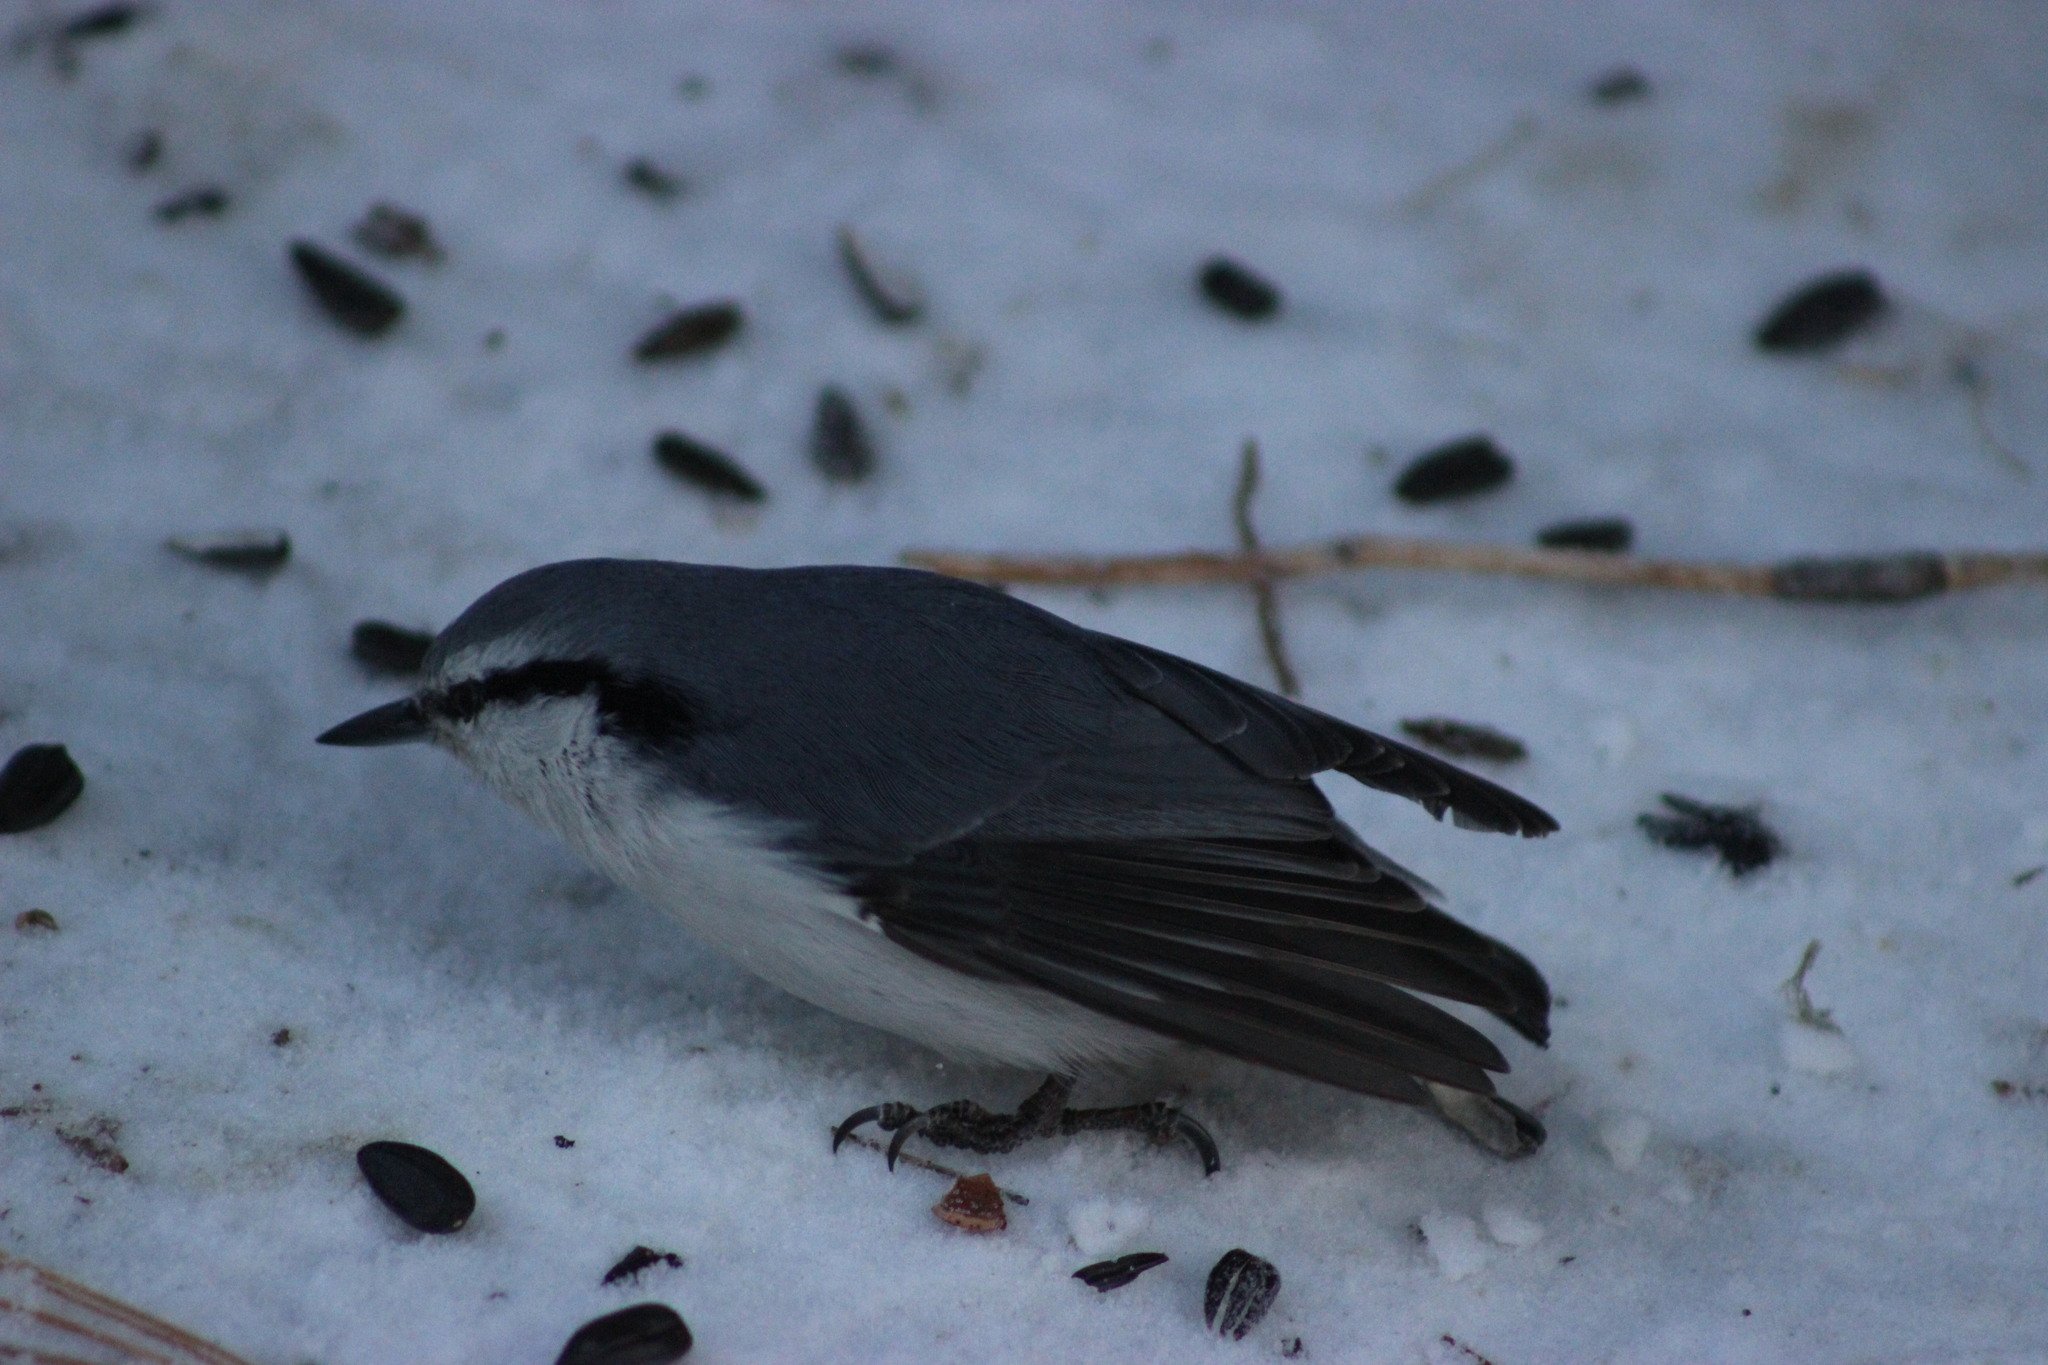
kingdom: Animalia
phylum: Chordata
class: Aves
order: Passeriformes
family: Sittidae
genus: Sitta
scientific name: Sitta europaea
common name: Eurasian nuthatch
